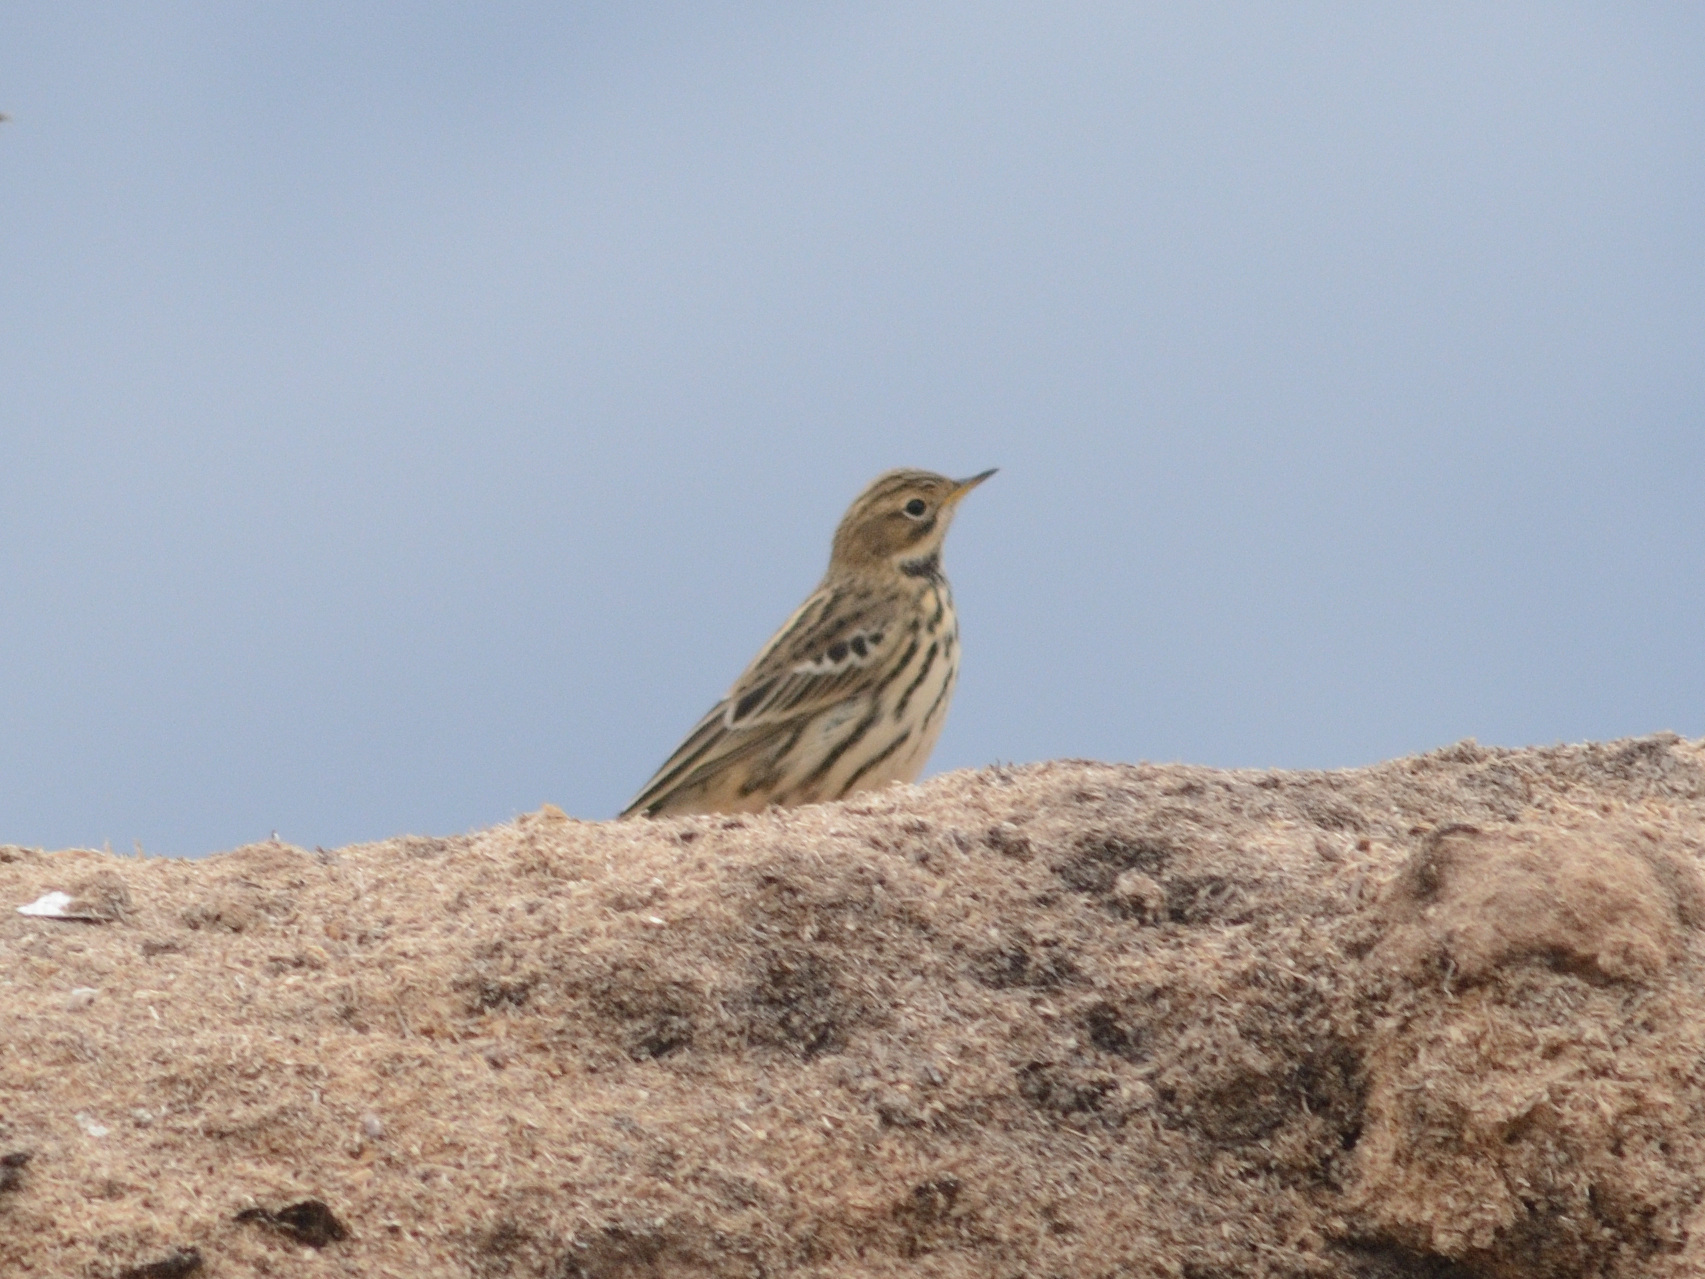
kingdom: Animalia
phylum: Chordata
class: Aves
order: Passeriformes
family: Motacillidae
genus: Anthus
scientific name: Anthus cervinus
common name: Red-throated pipit
